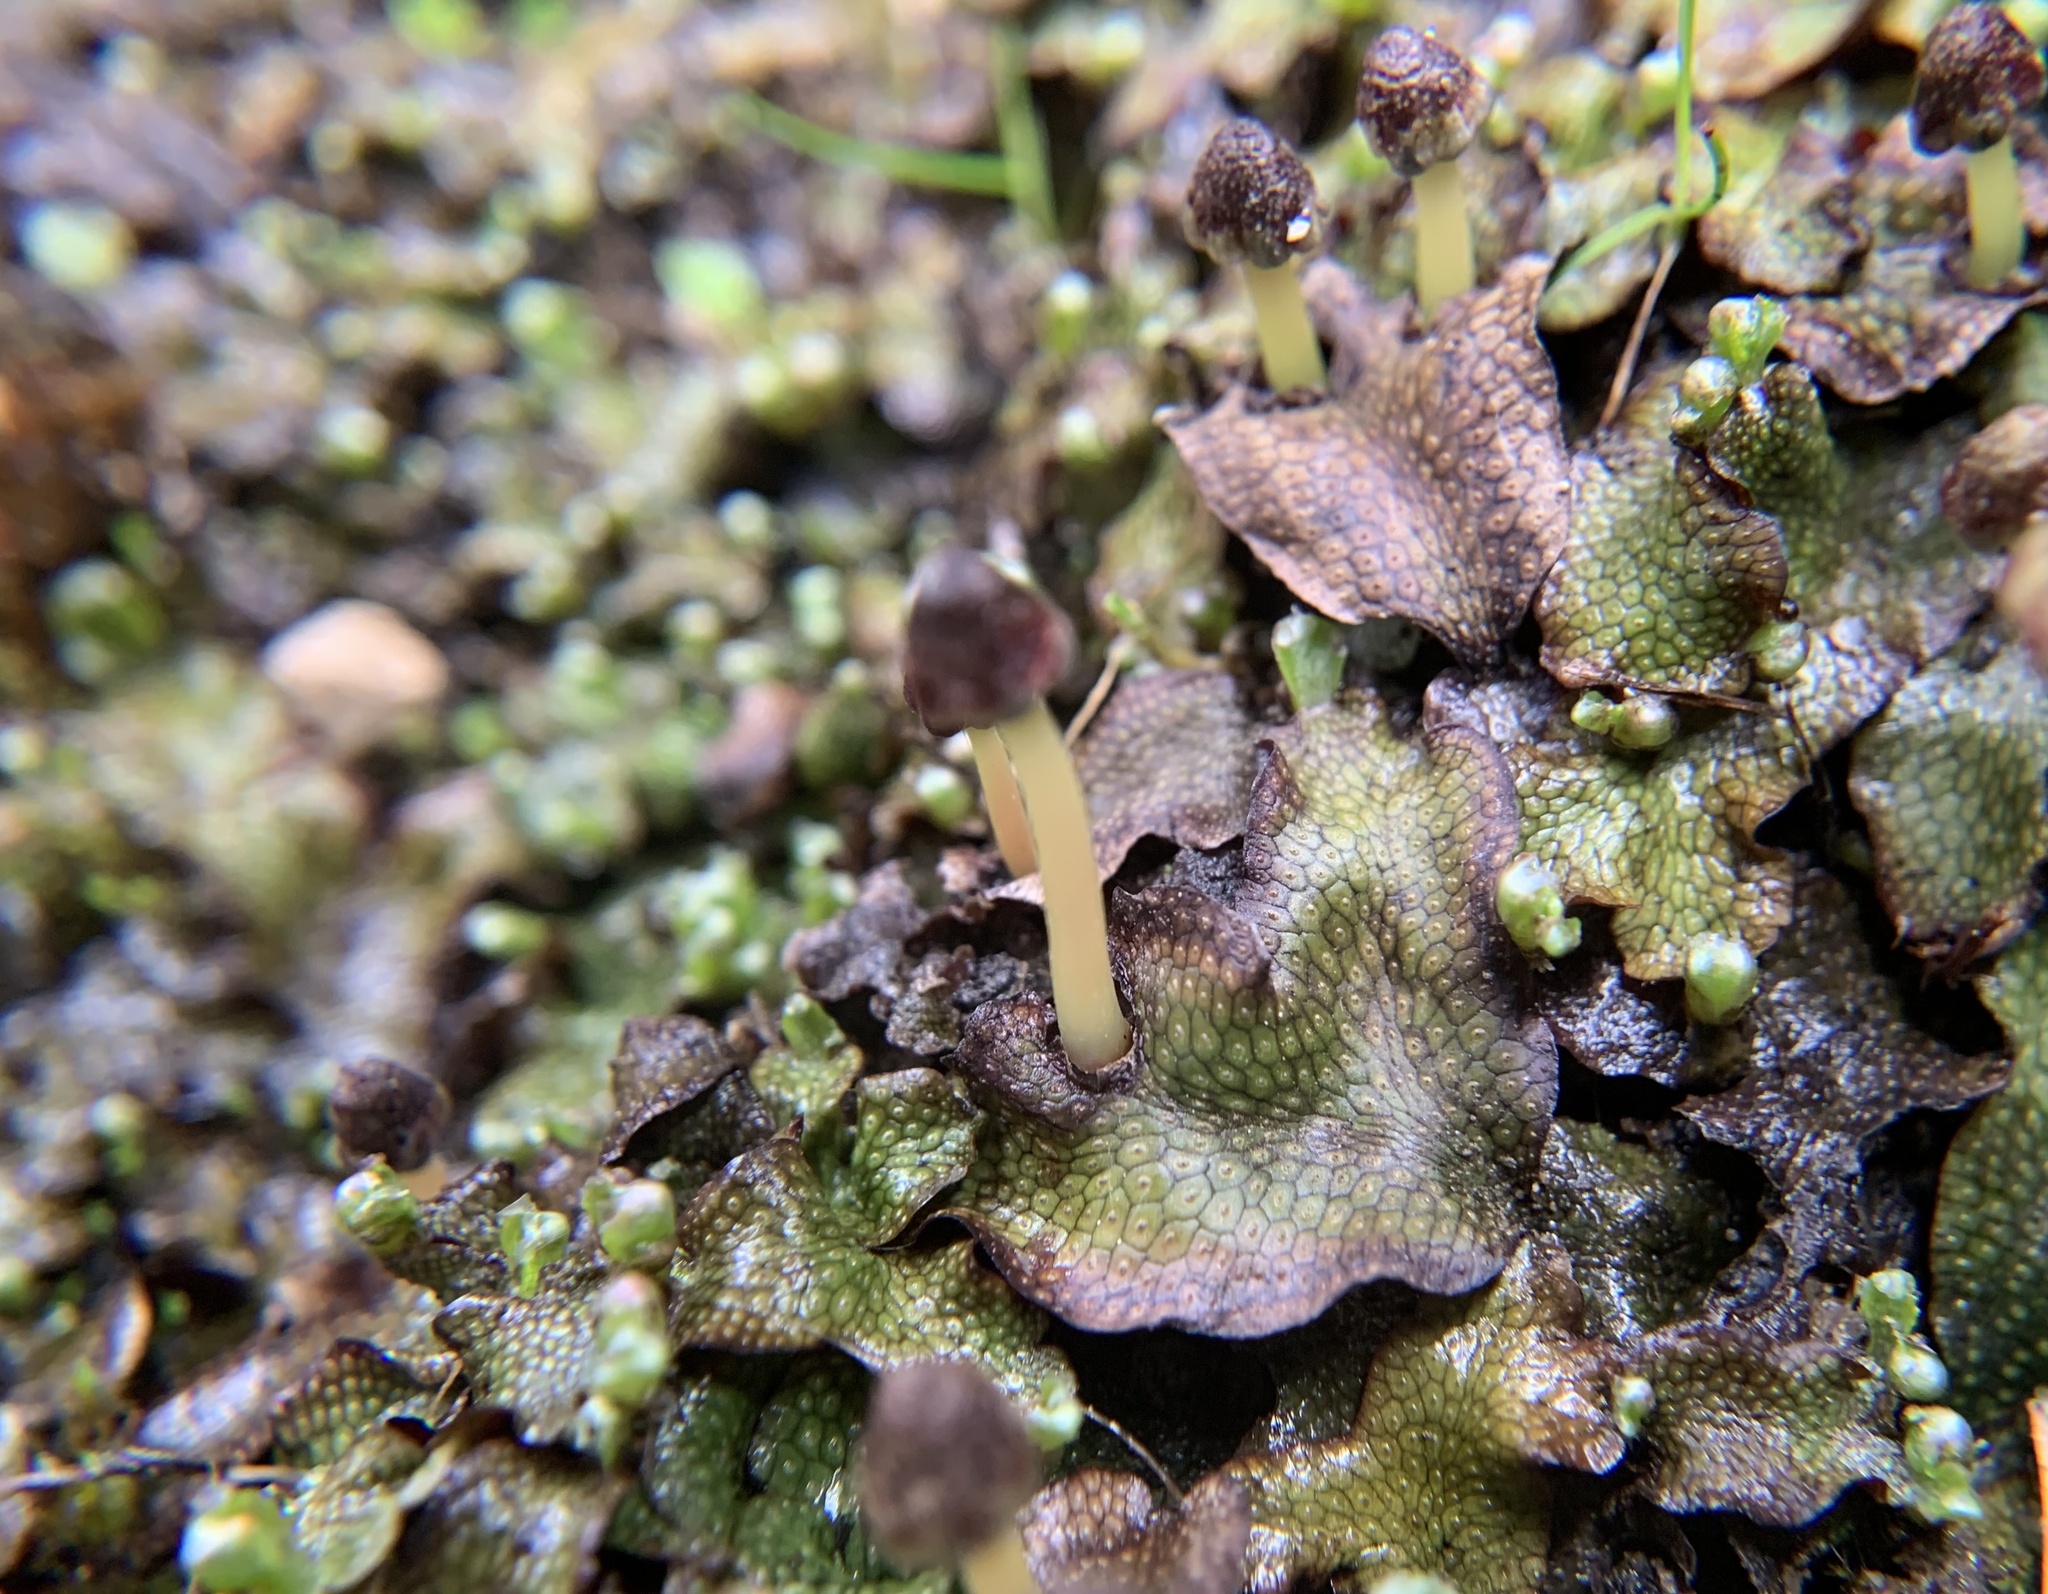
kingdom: Plantae
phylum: Marchantiophyta
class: Marchantiopsida
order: Marchantiales
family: Conocephalaceae
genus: Conocephalum
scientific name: Conocephalum salebrosum
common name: Cat-tongue liverwort
